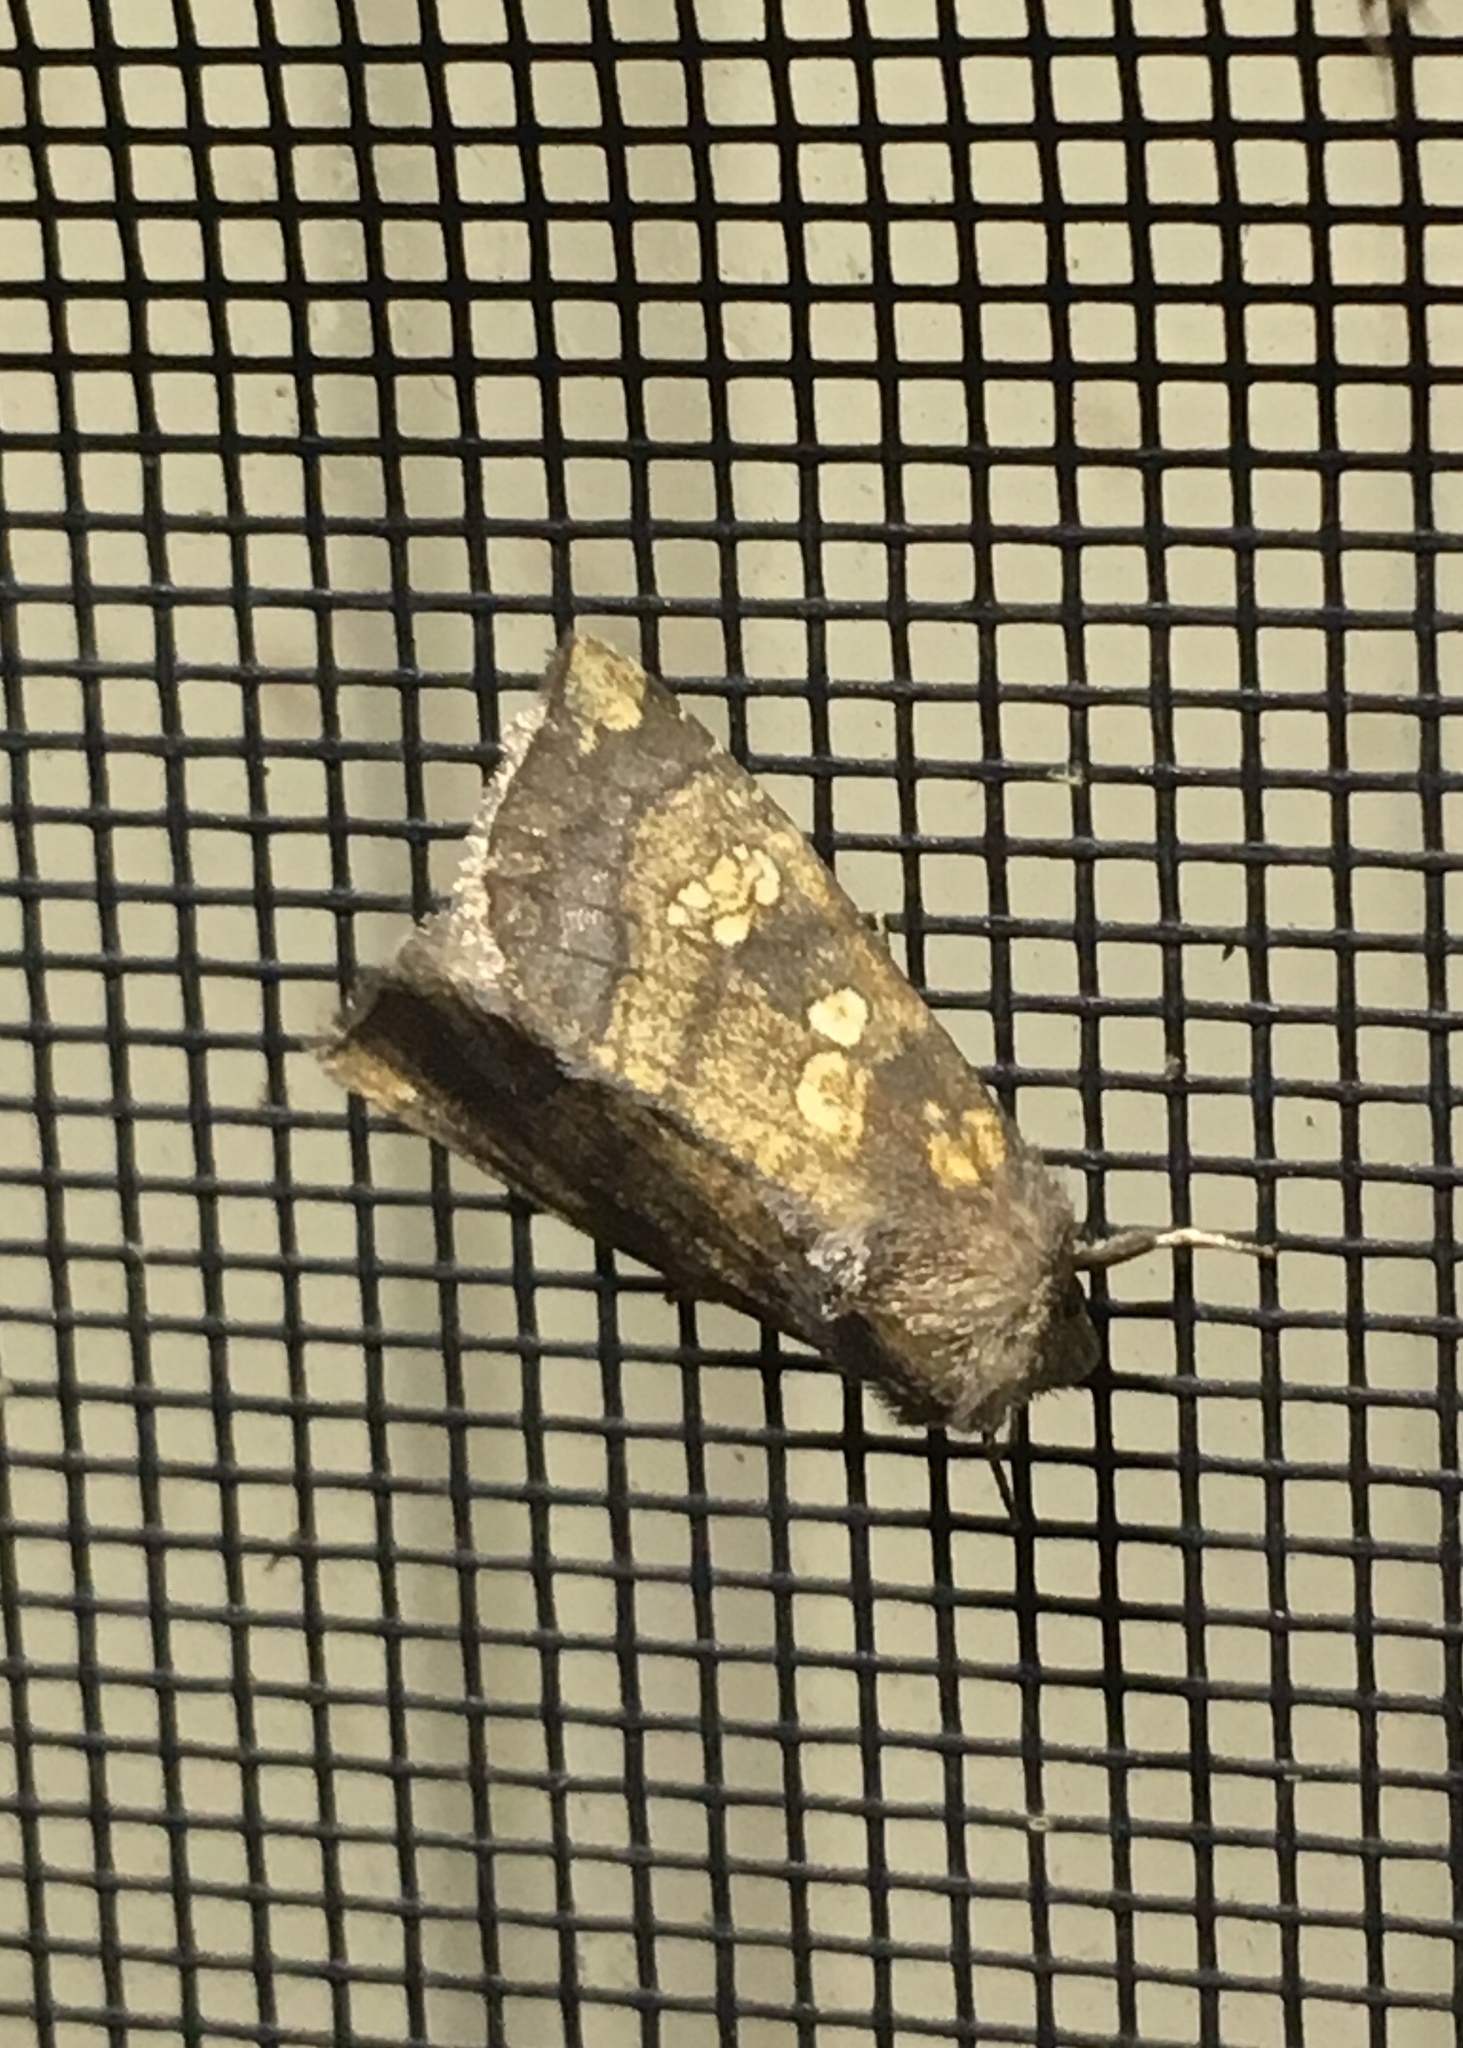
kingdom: Animalia
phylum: Arthropoda
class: Insecta
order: Lepidoptera
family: Noctuidae
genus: Papaipema
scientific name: Papaipema cataphracta
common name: Burdock borer
